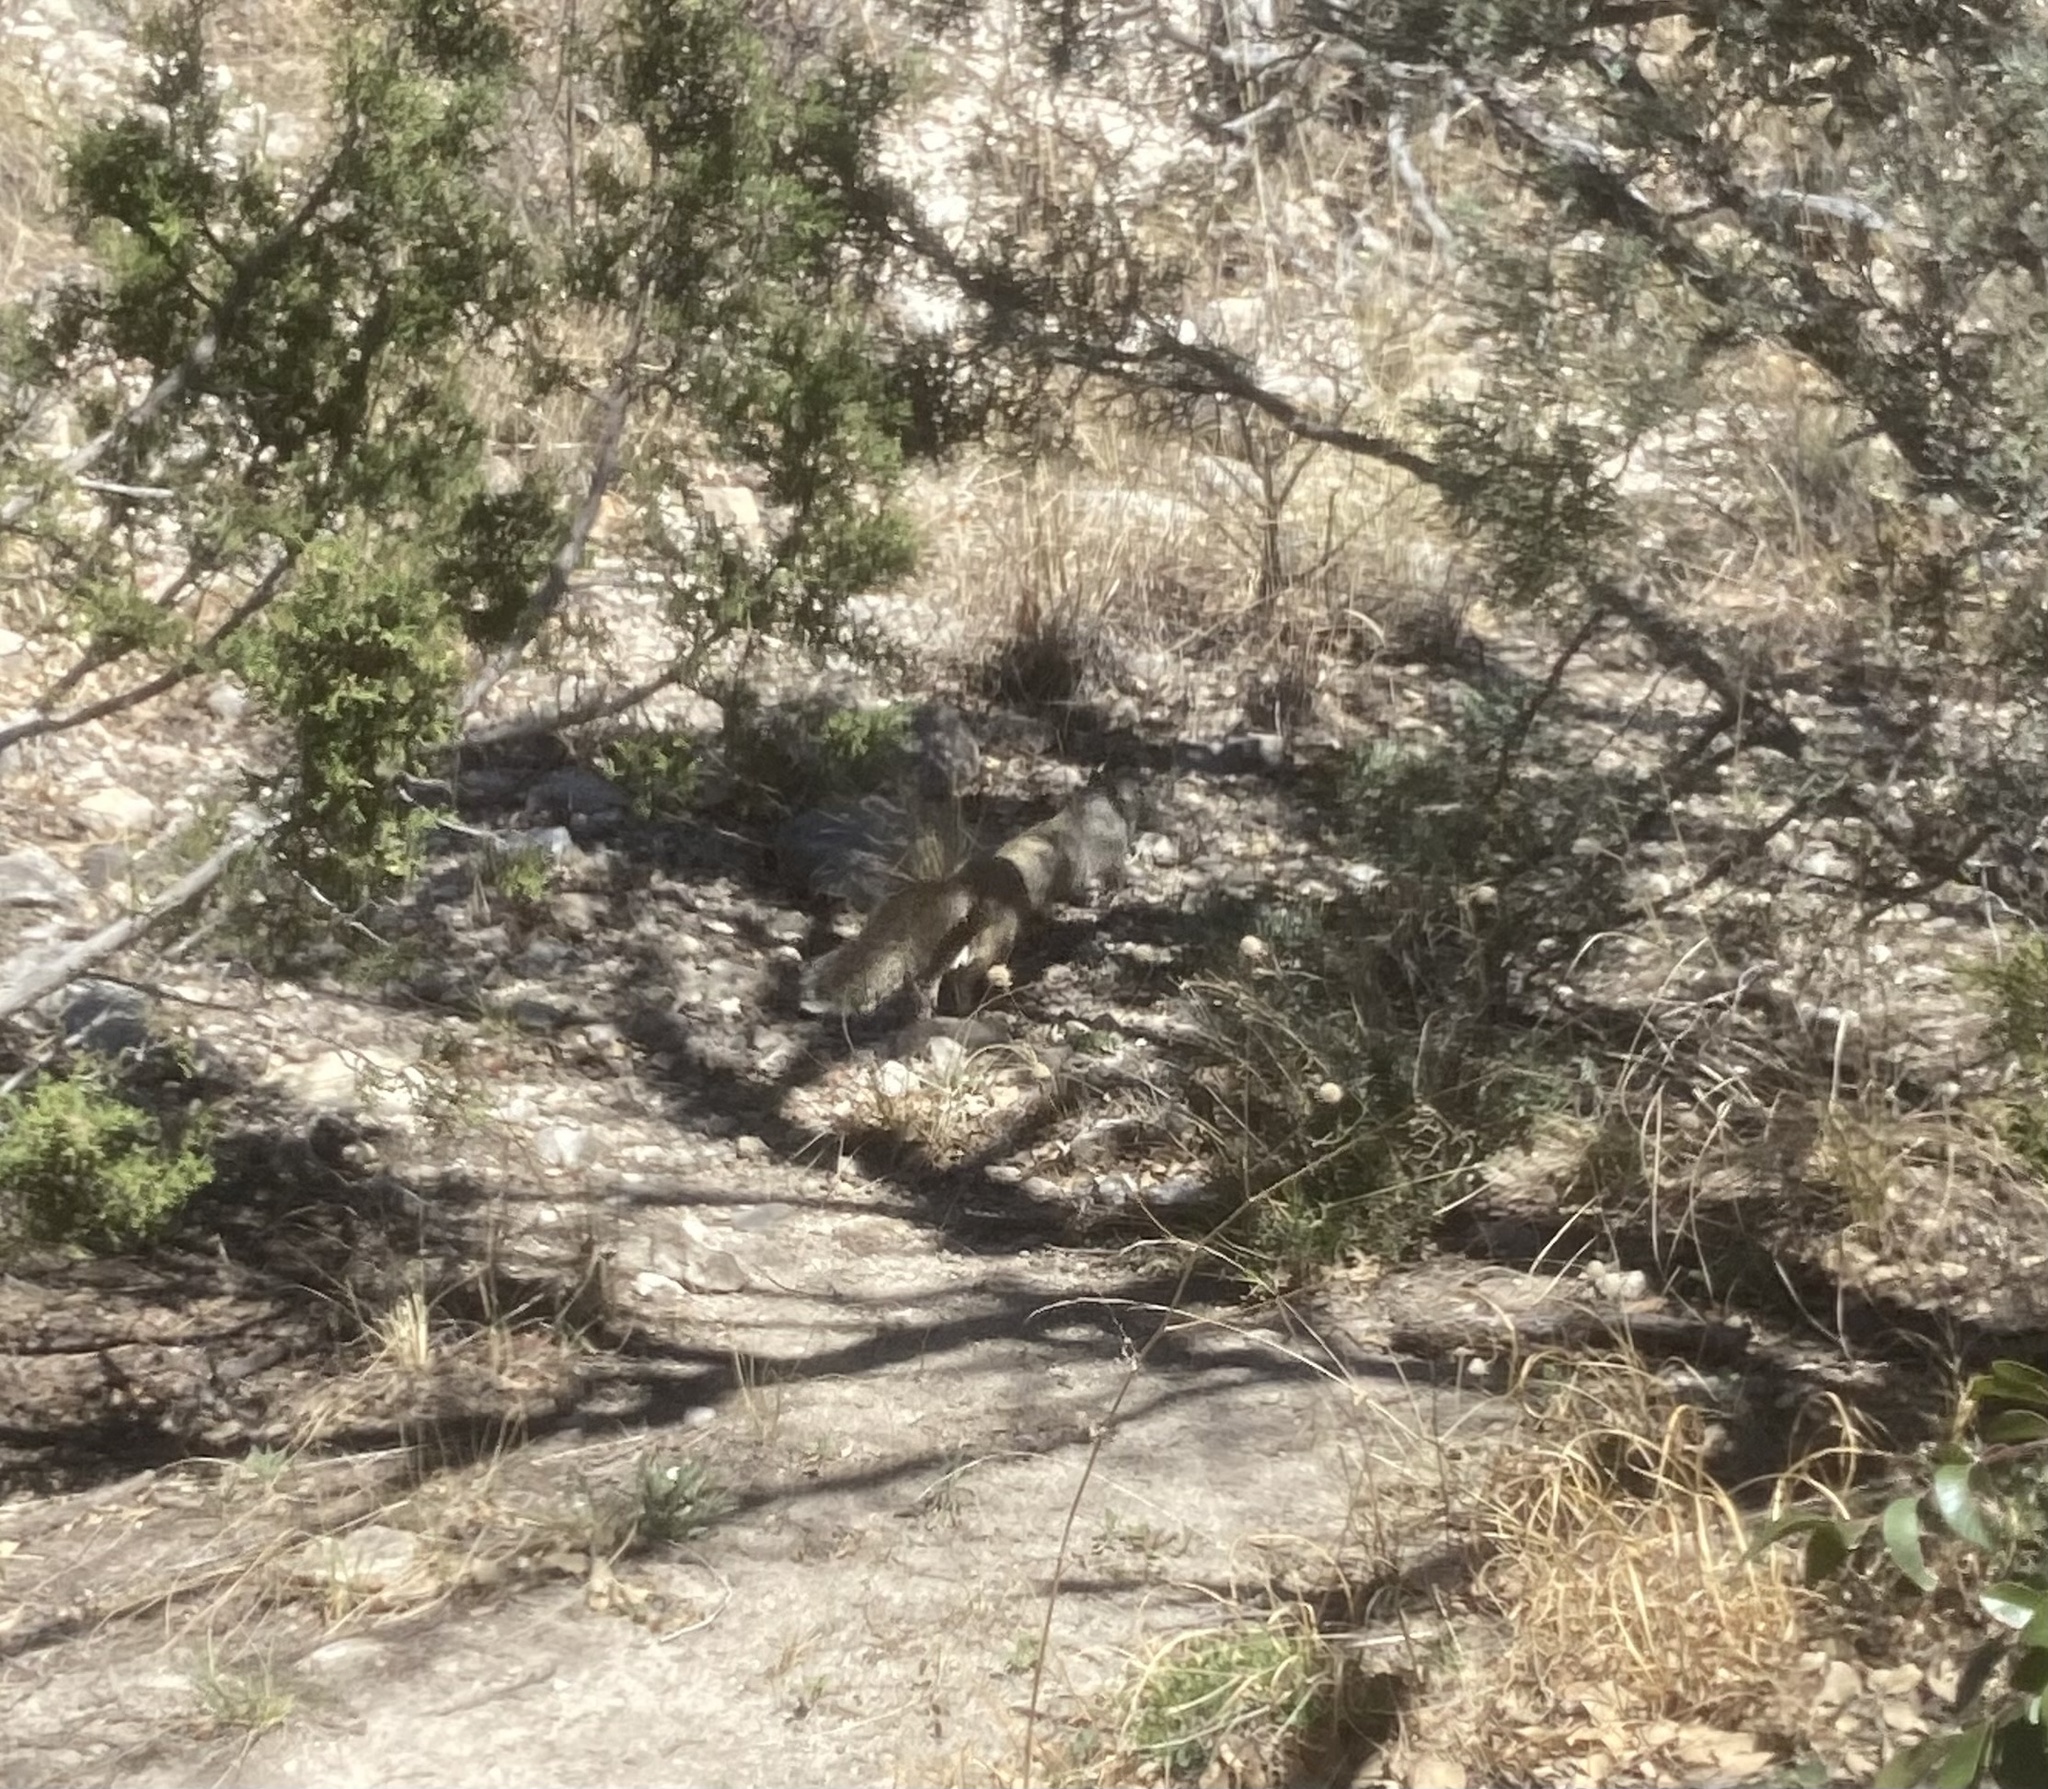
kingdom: Animalia
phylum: Chordata
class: Mammalia
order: Rodentia
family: Sciuridae
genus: Otospermophilus
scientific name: Otospermophilus variegatus
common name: Rock squirrel
